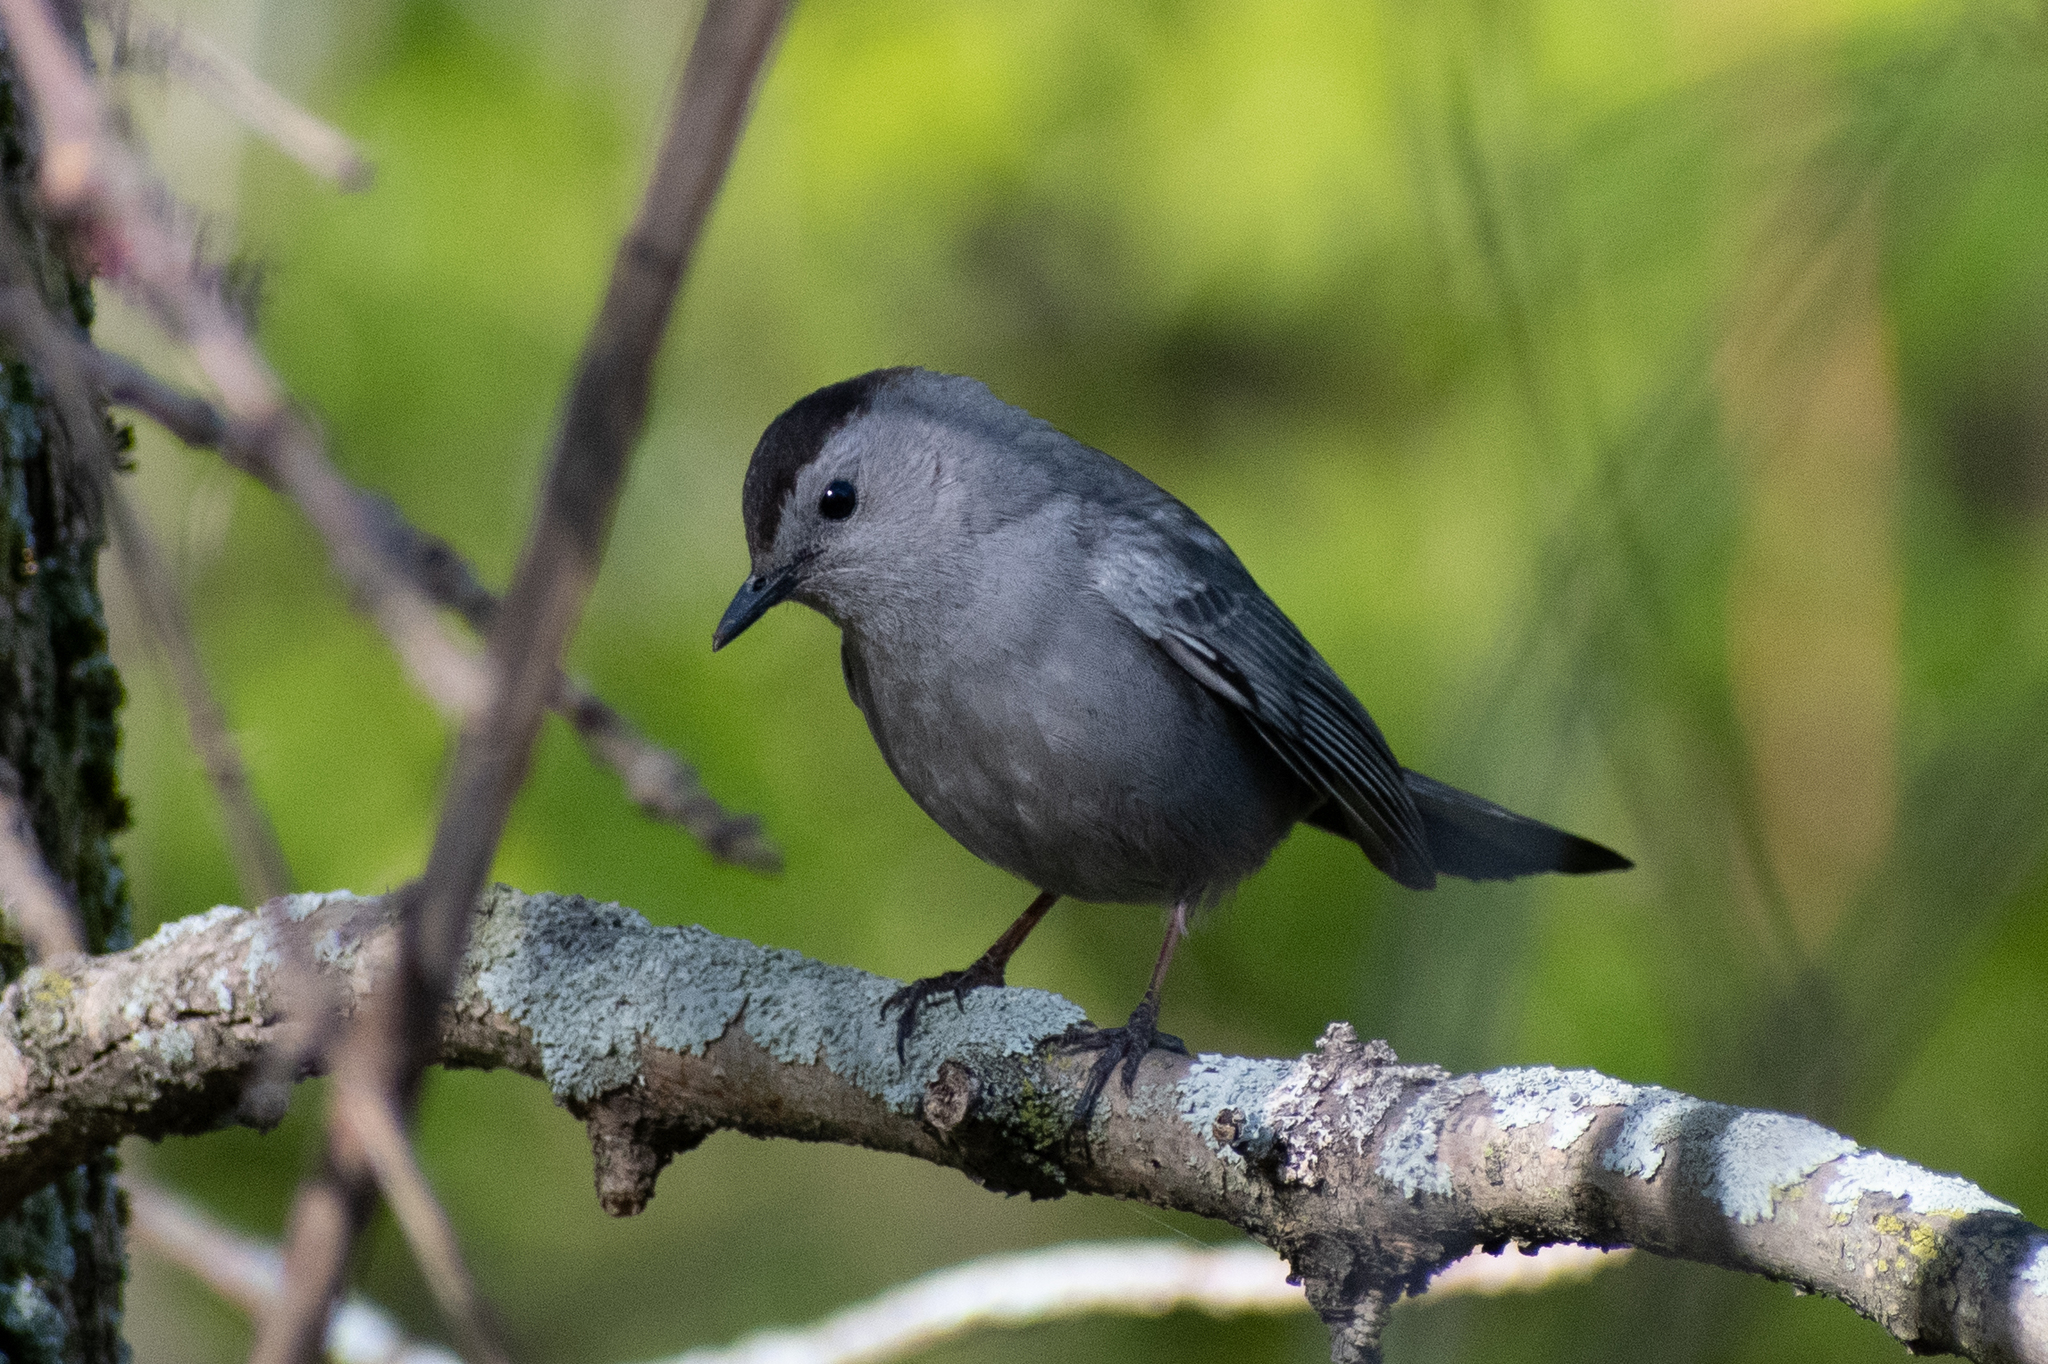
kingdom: Animalia
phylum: Chordata
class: Aves
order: Passeriformes
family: Mimidae
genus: Dumetella
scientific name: Dumetella carolinensis
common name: Gray catbird
